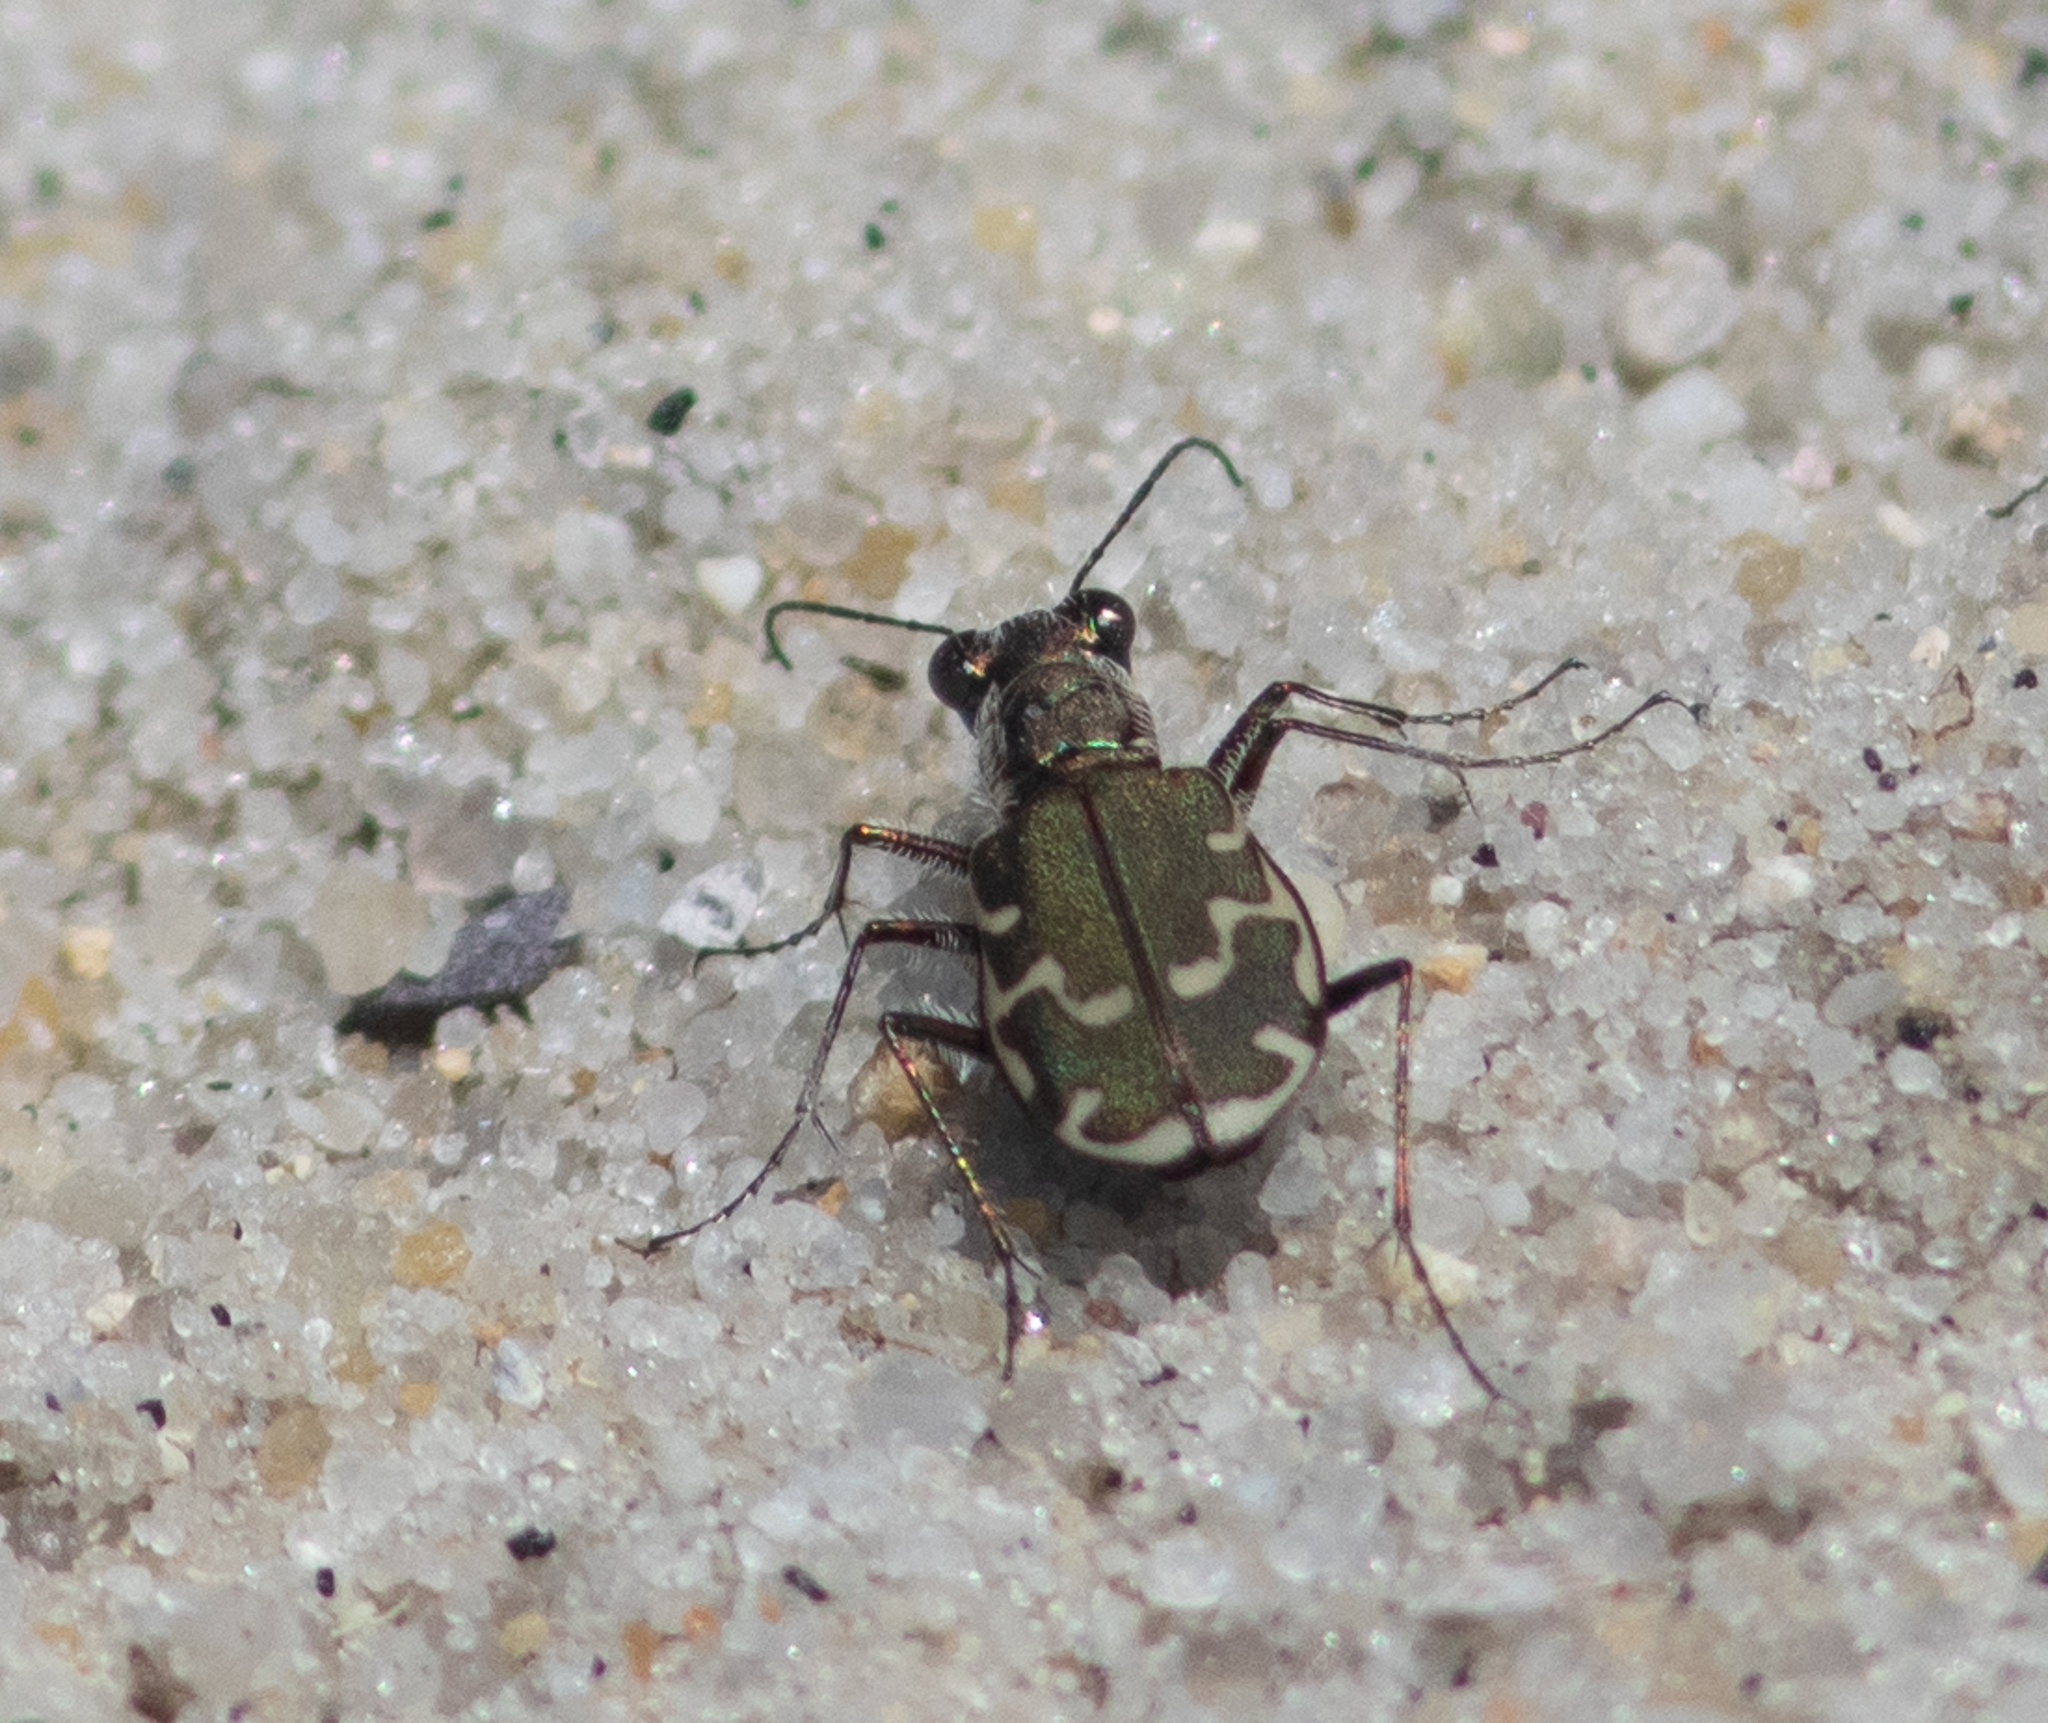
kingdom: Animalia
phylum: Arthropoda
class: Insecta
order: Coleoptera
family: Carabidae
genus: Cicindela
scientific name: Cicindela repanda
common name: Bronzed tiger beetle
